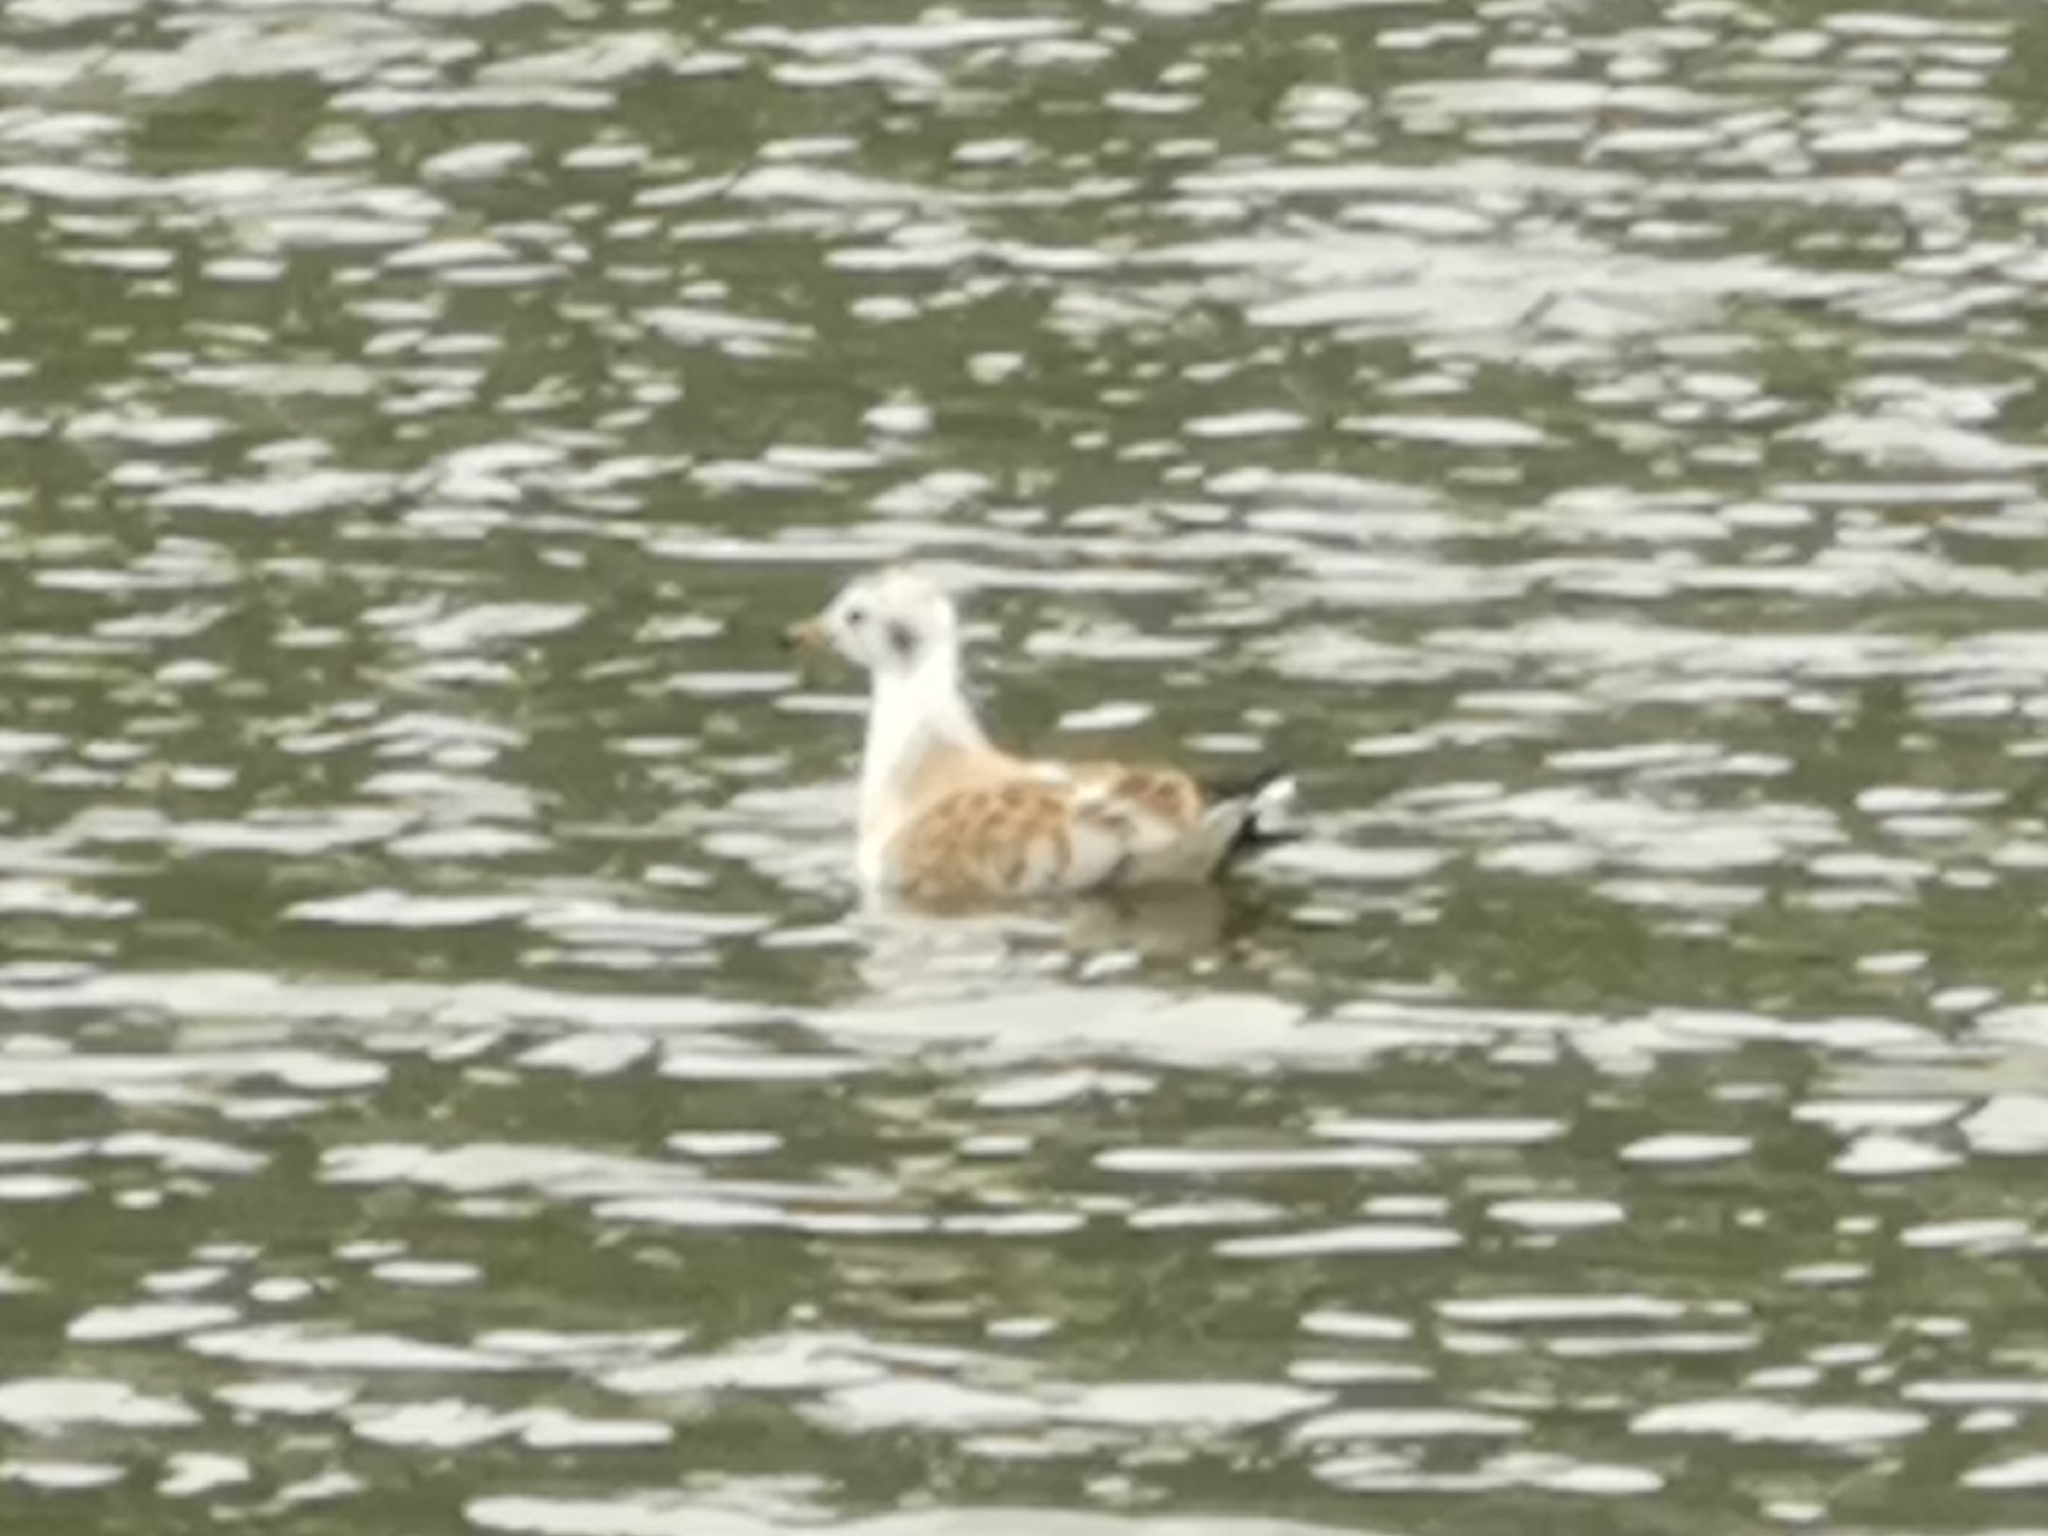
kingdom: Animalia
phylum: Chordata
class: Aves
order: Charadriiformes
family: Laridae
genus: Chroicocephalus
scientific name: Chroicocephalus ridibundus
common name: Black-headed gull
